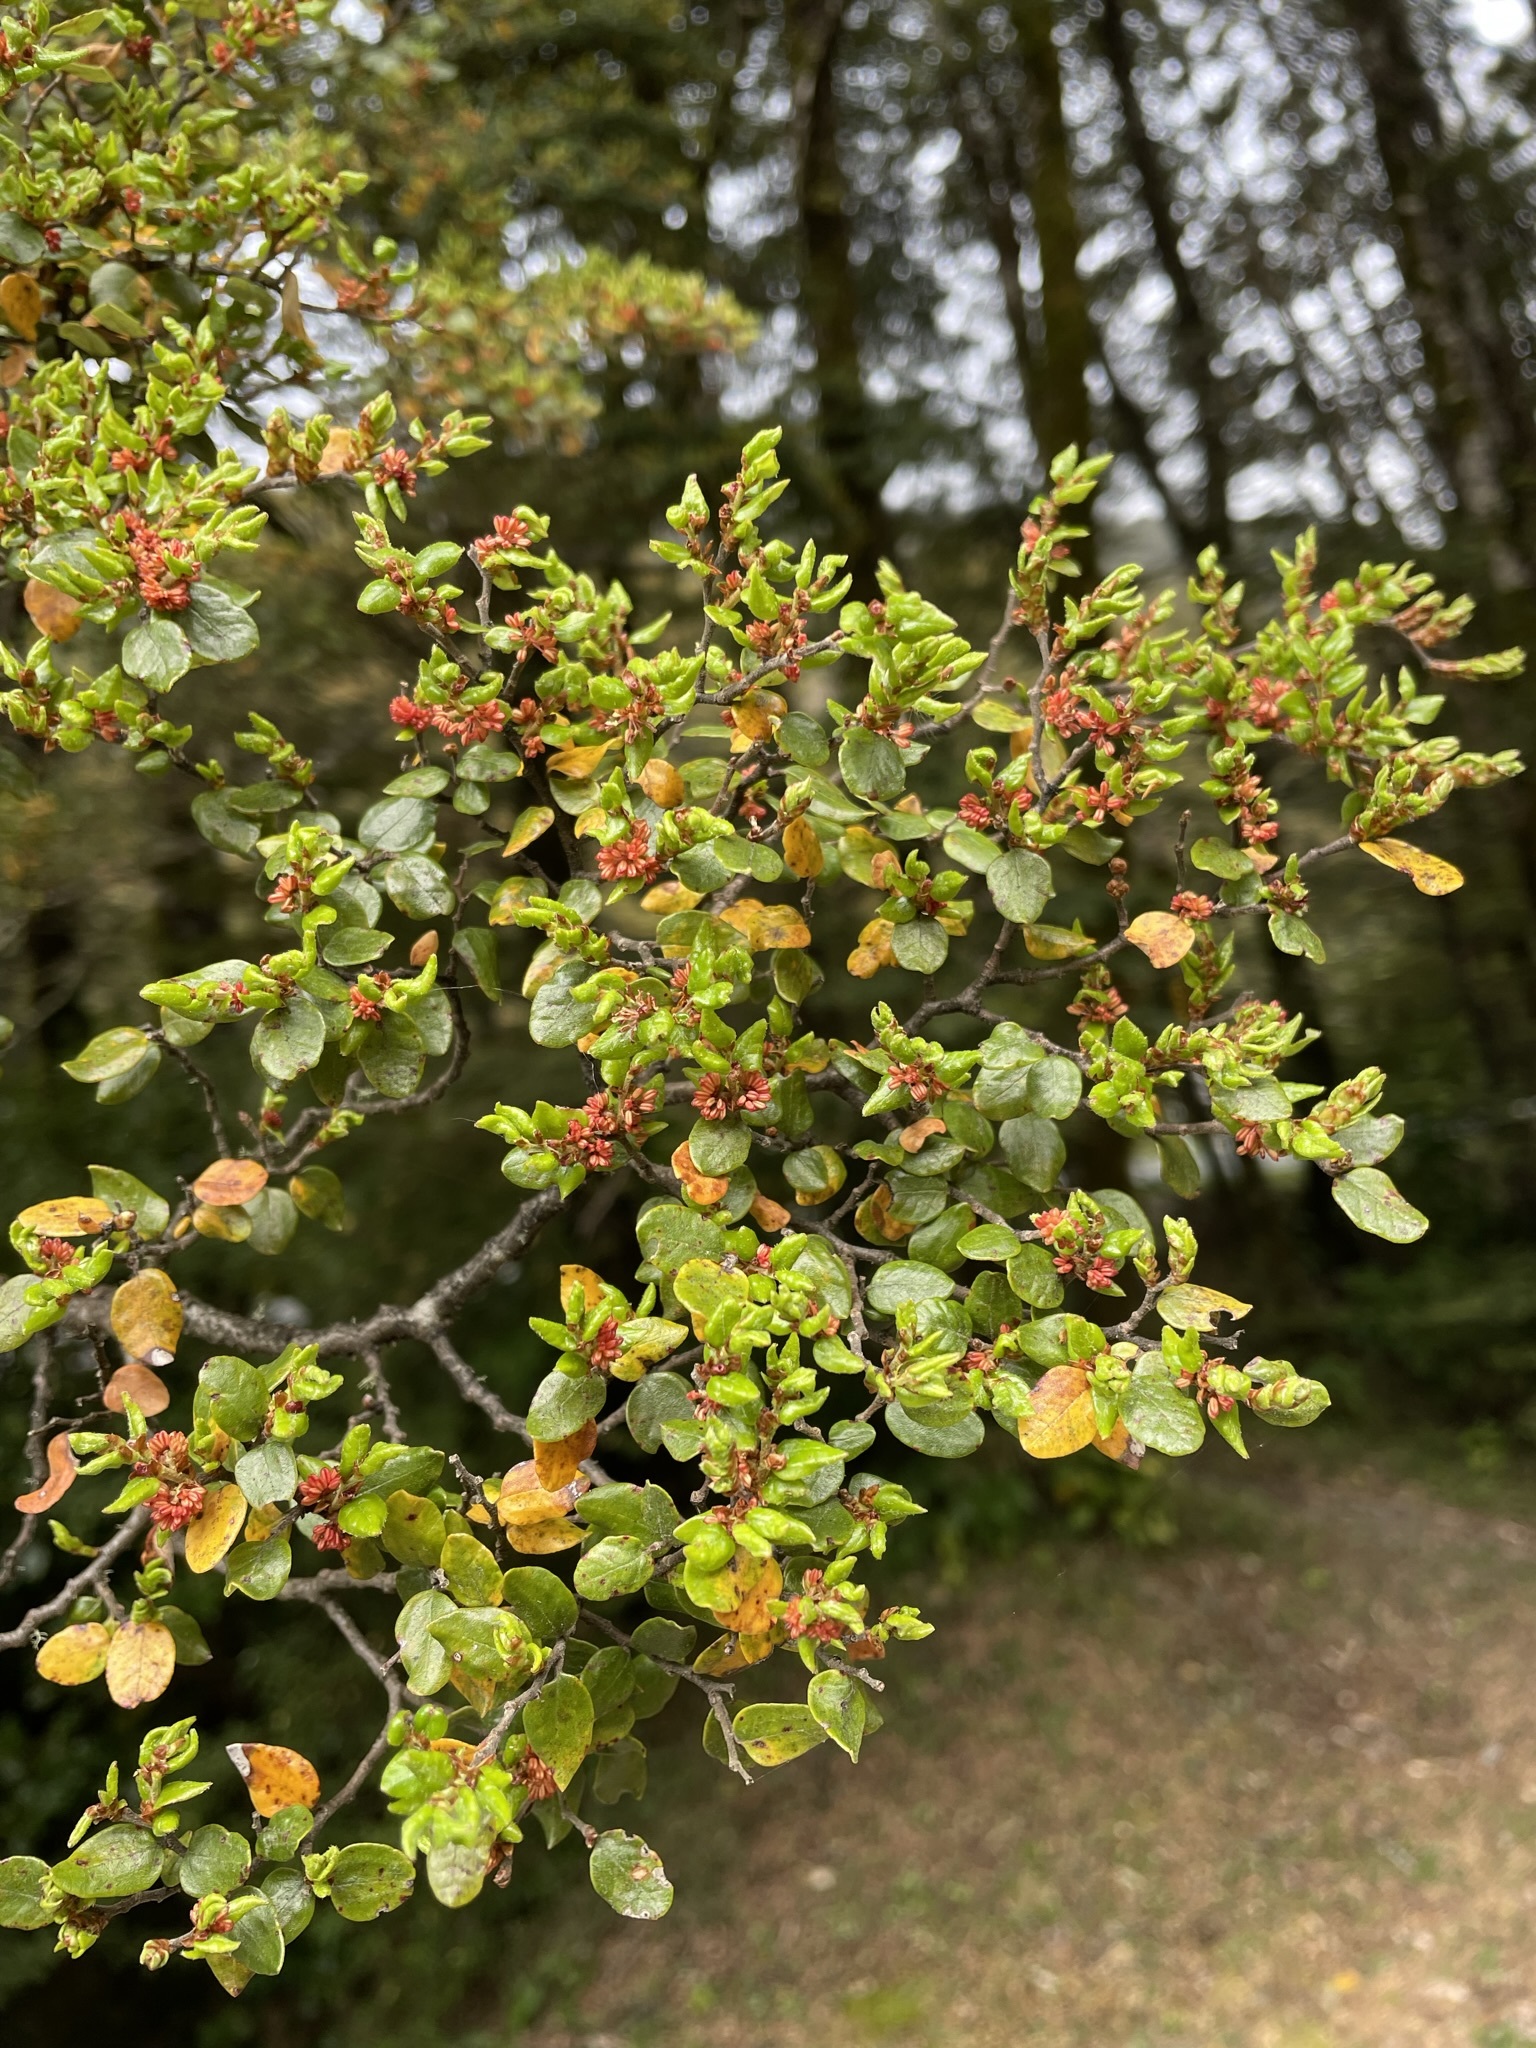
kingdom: Plantae
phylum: Tracheophyta
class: Magnoliopsida
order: Fagales
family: Nothofagaceae
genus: Nothofagus
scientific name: Nothofagus cliffortioides
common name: Mountain beech
